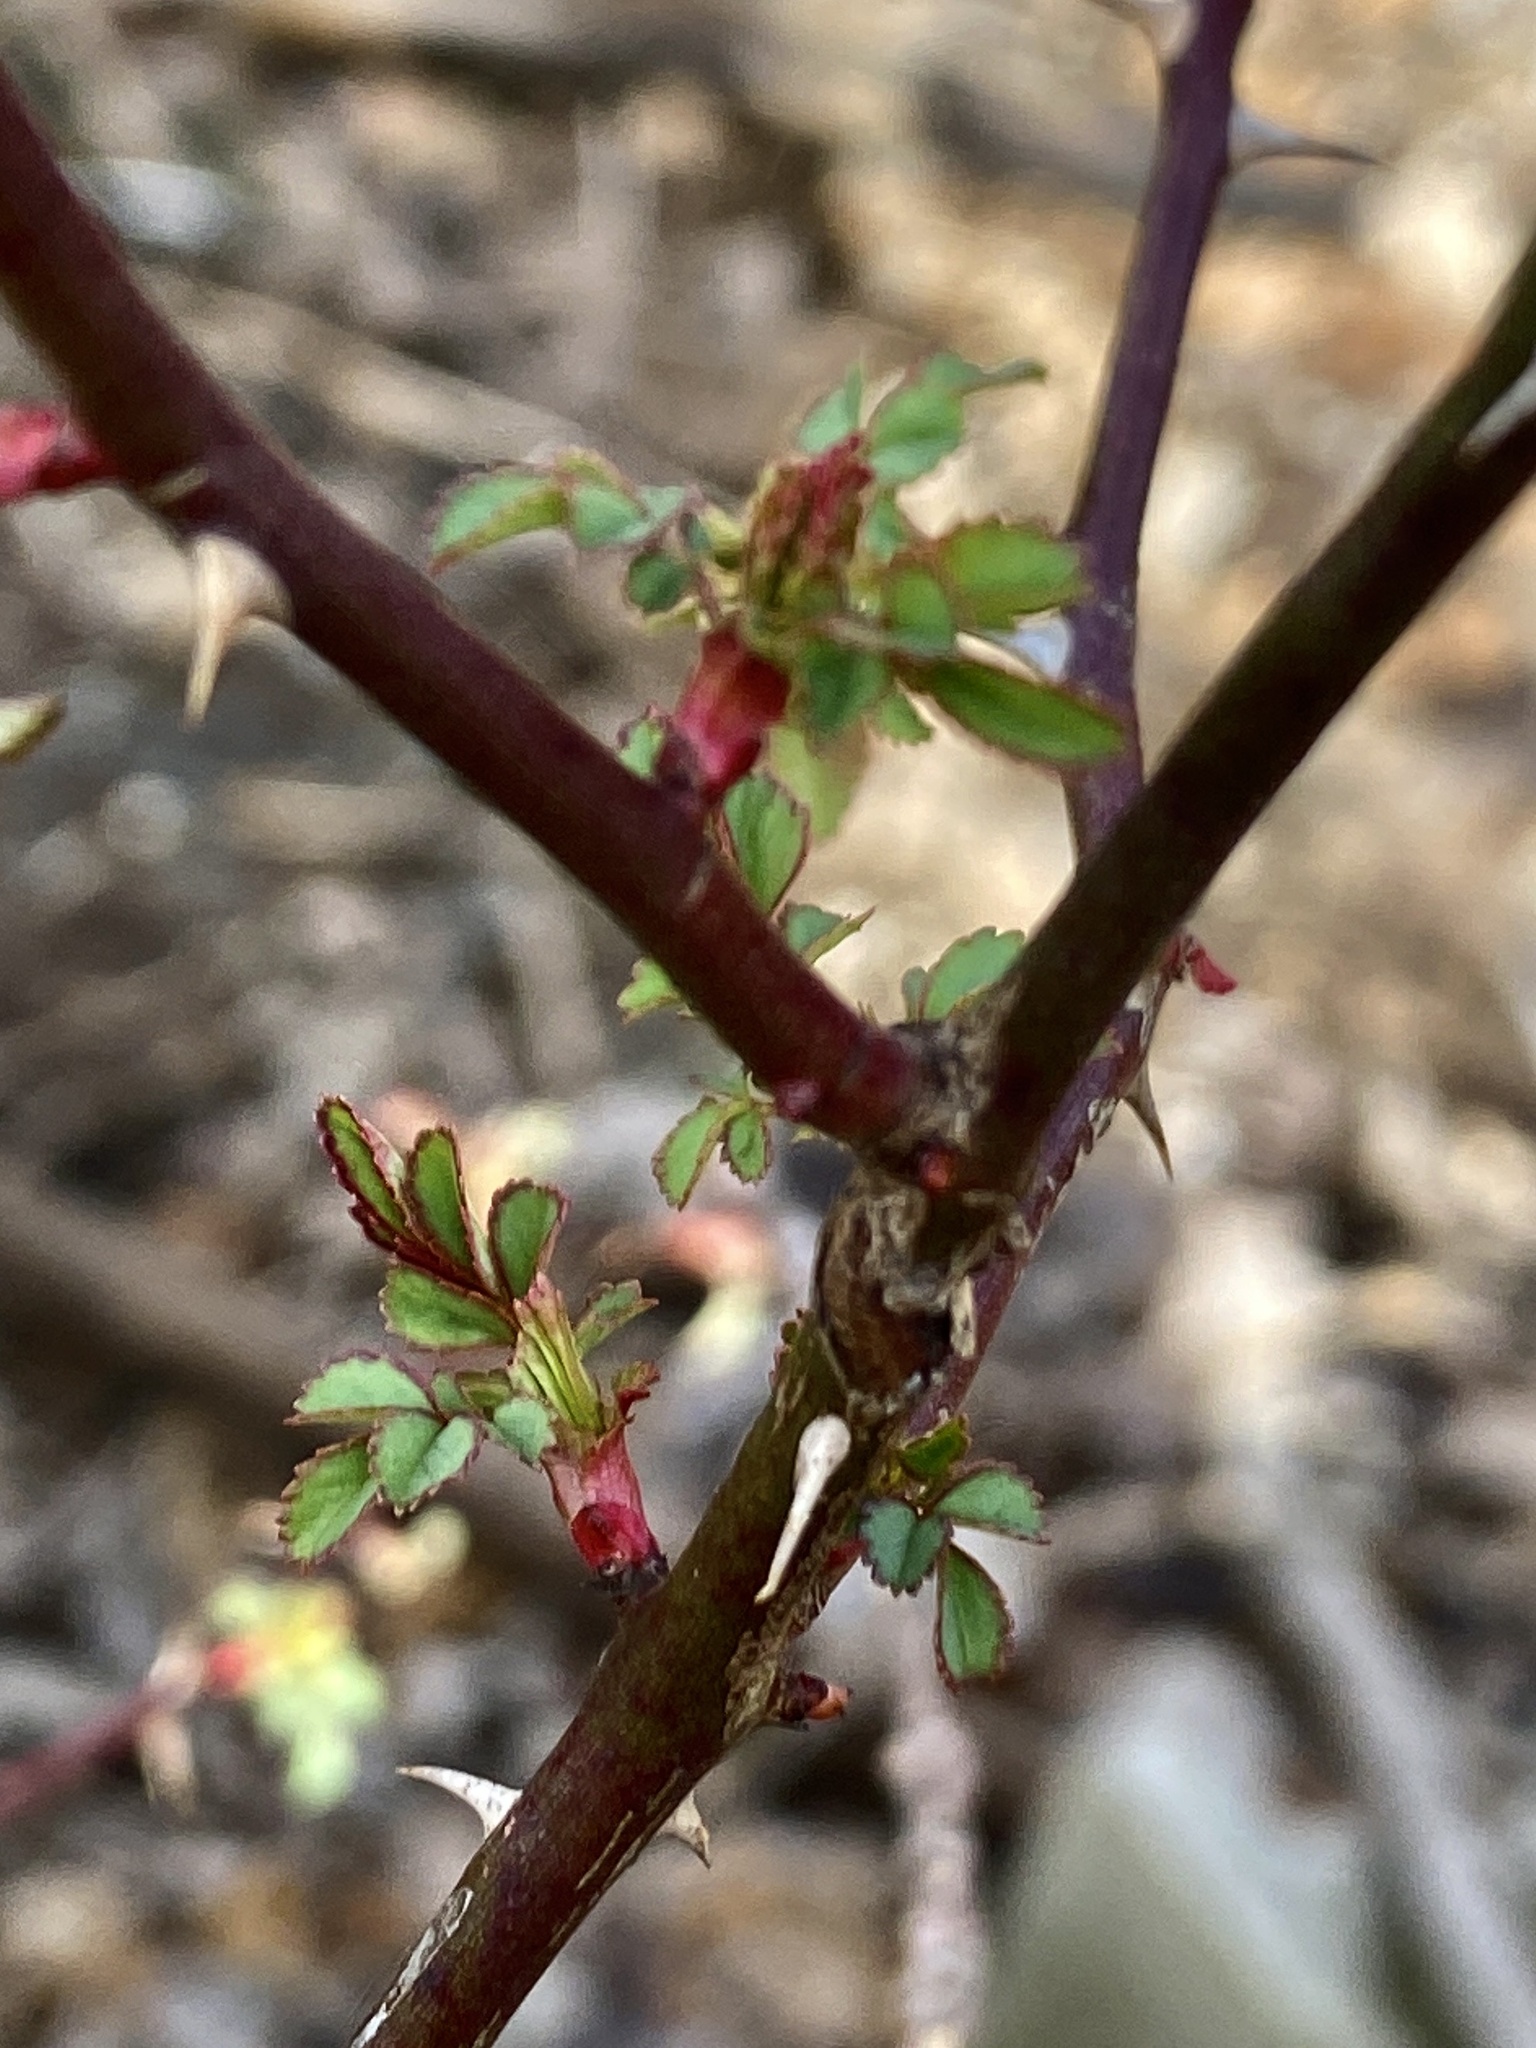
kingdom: Plantae
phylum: Tracheophyta
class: Magnoliopsida
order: Rosales
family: Rosaceae
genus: Rosa
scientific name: Rosa multiflora
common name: Multiflora rose
